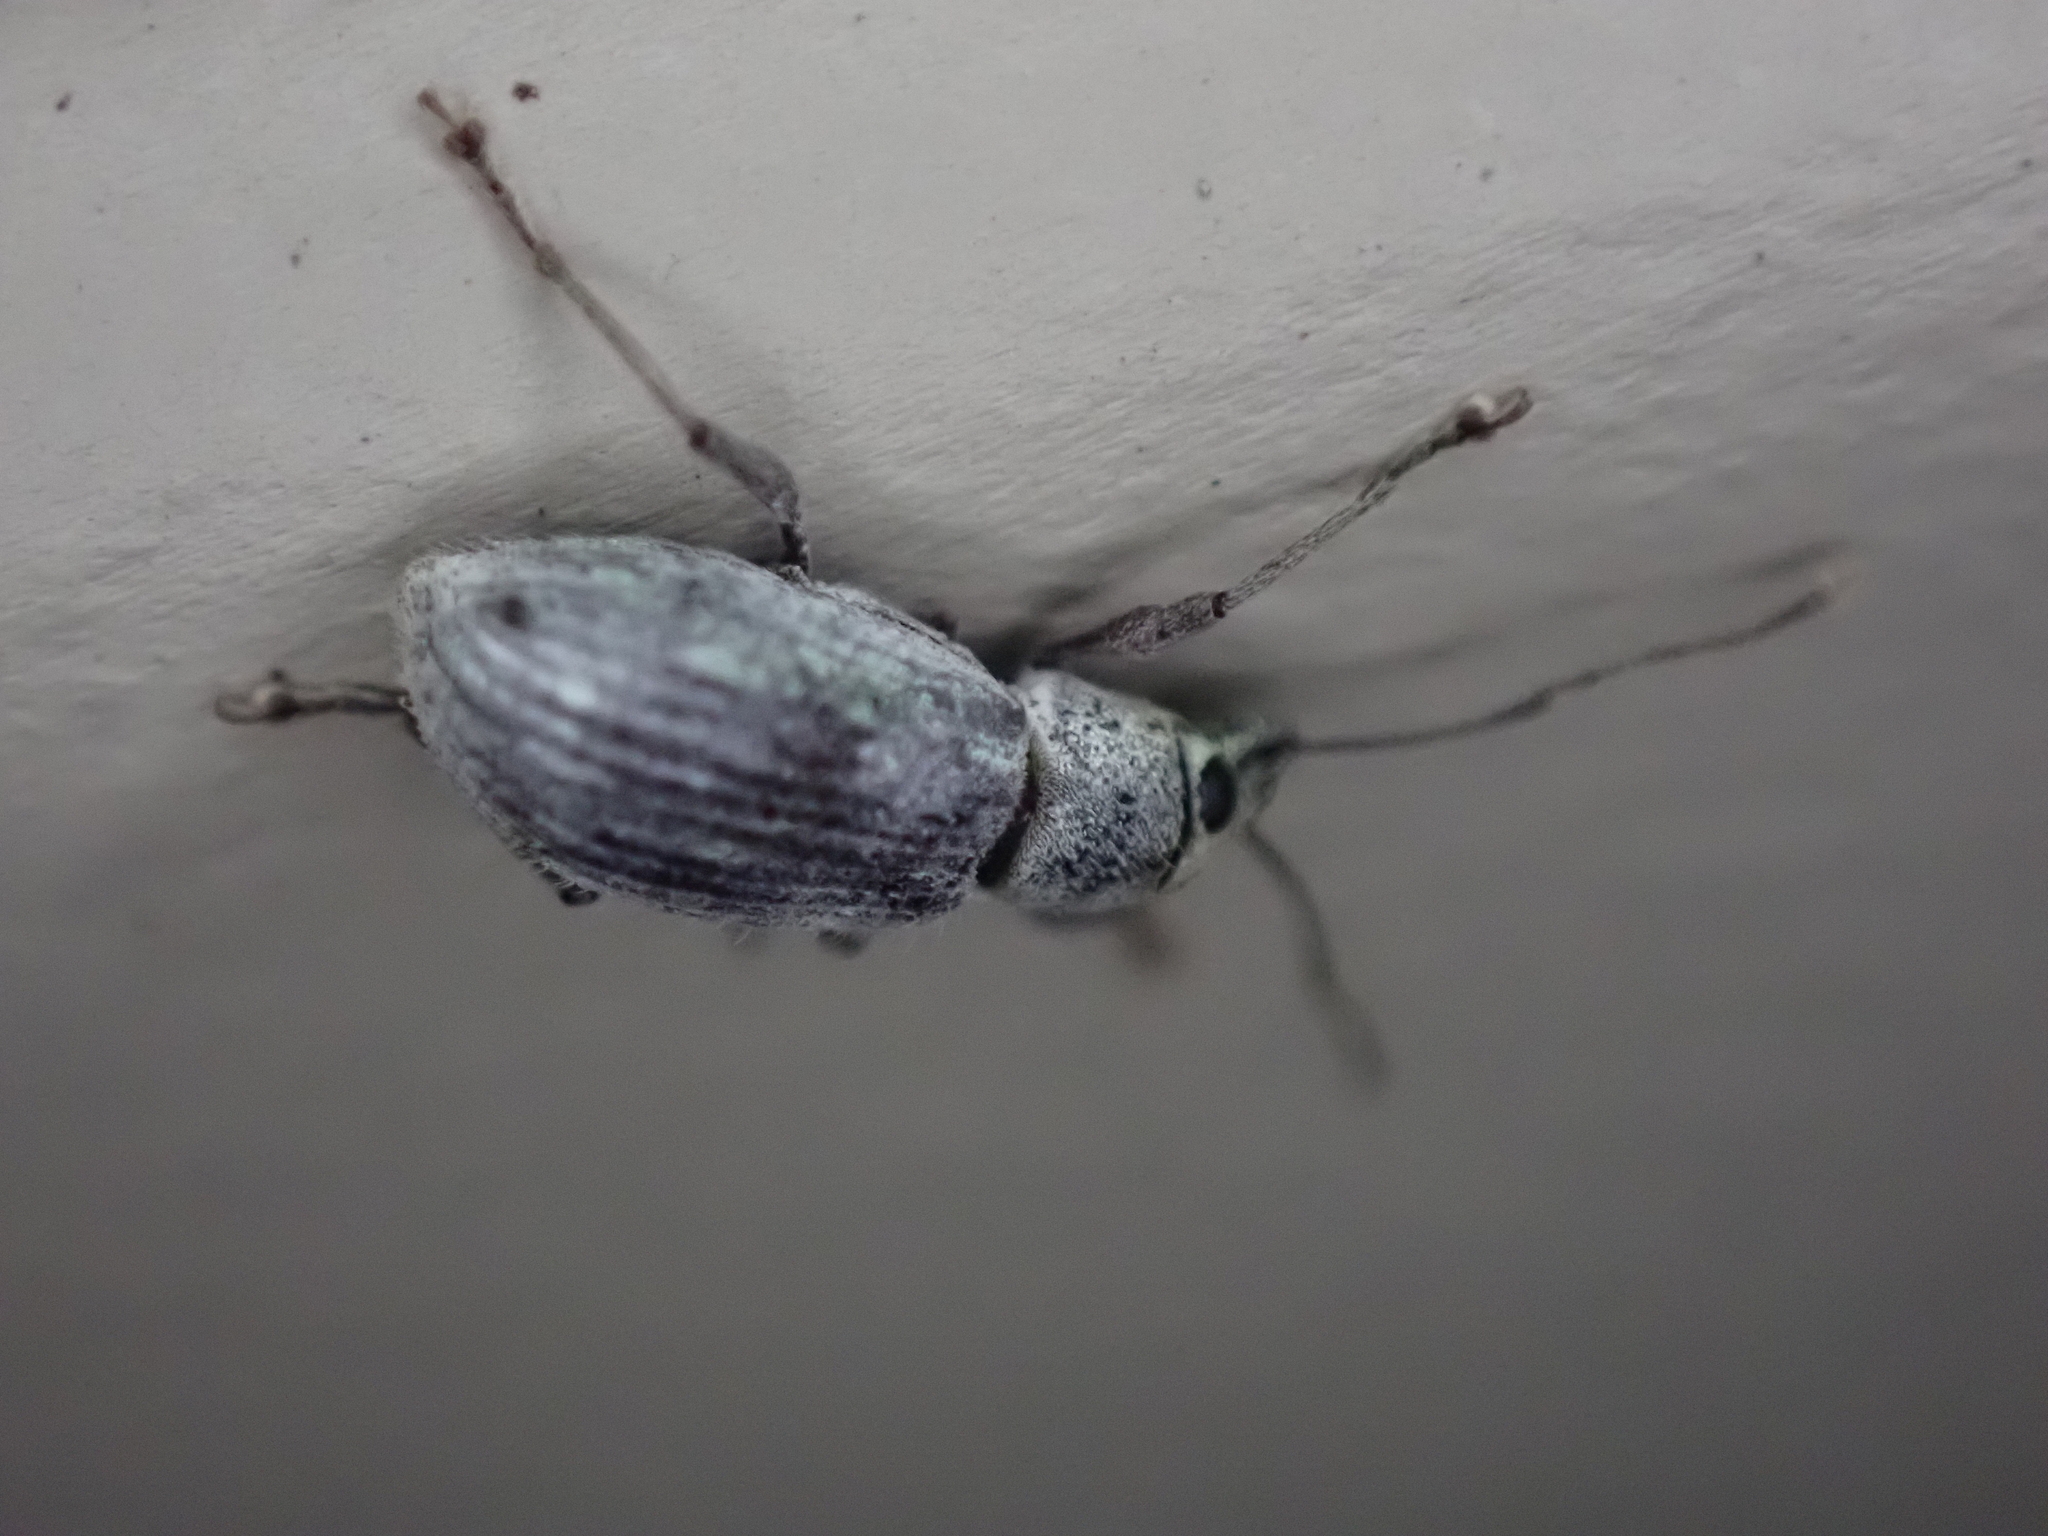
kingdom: Animalia
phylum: Arthropoda
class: Insecta
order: Coleoptera
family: Curculionidae
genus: Cyrtepistomus
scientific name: Cyrtepistomus castaneus
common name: Weevil
